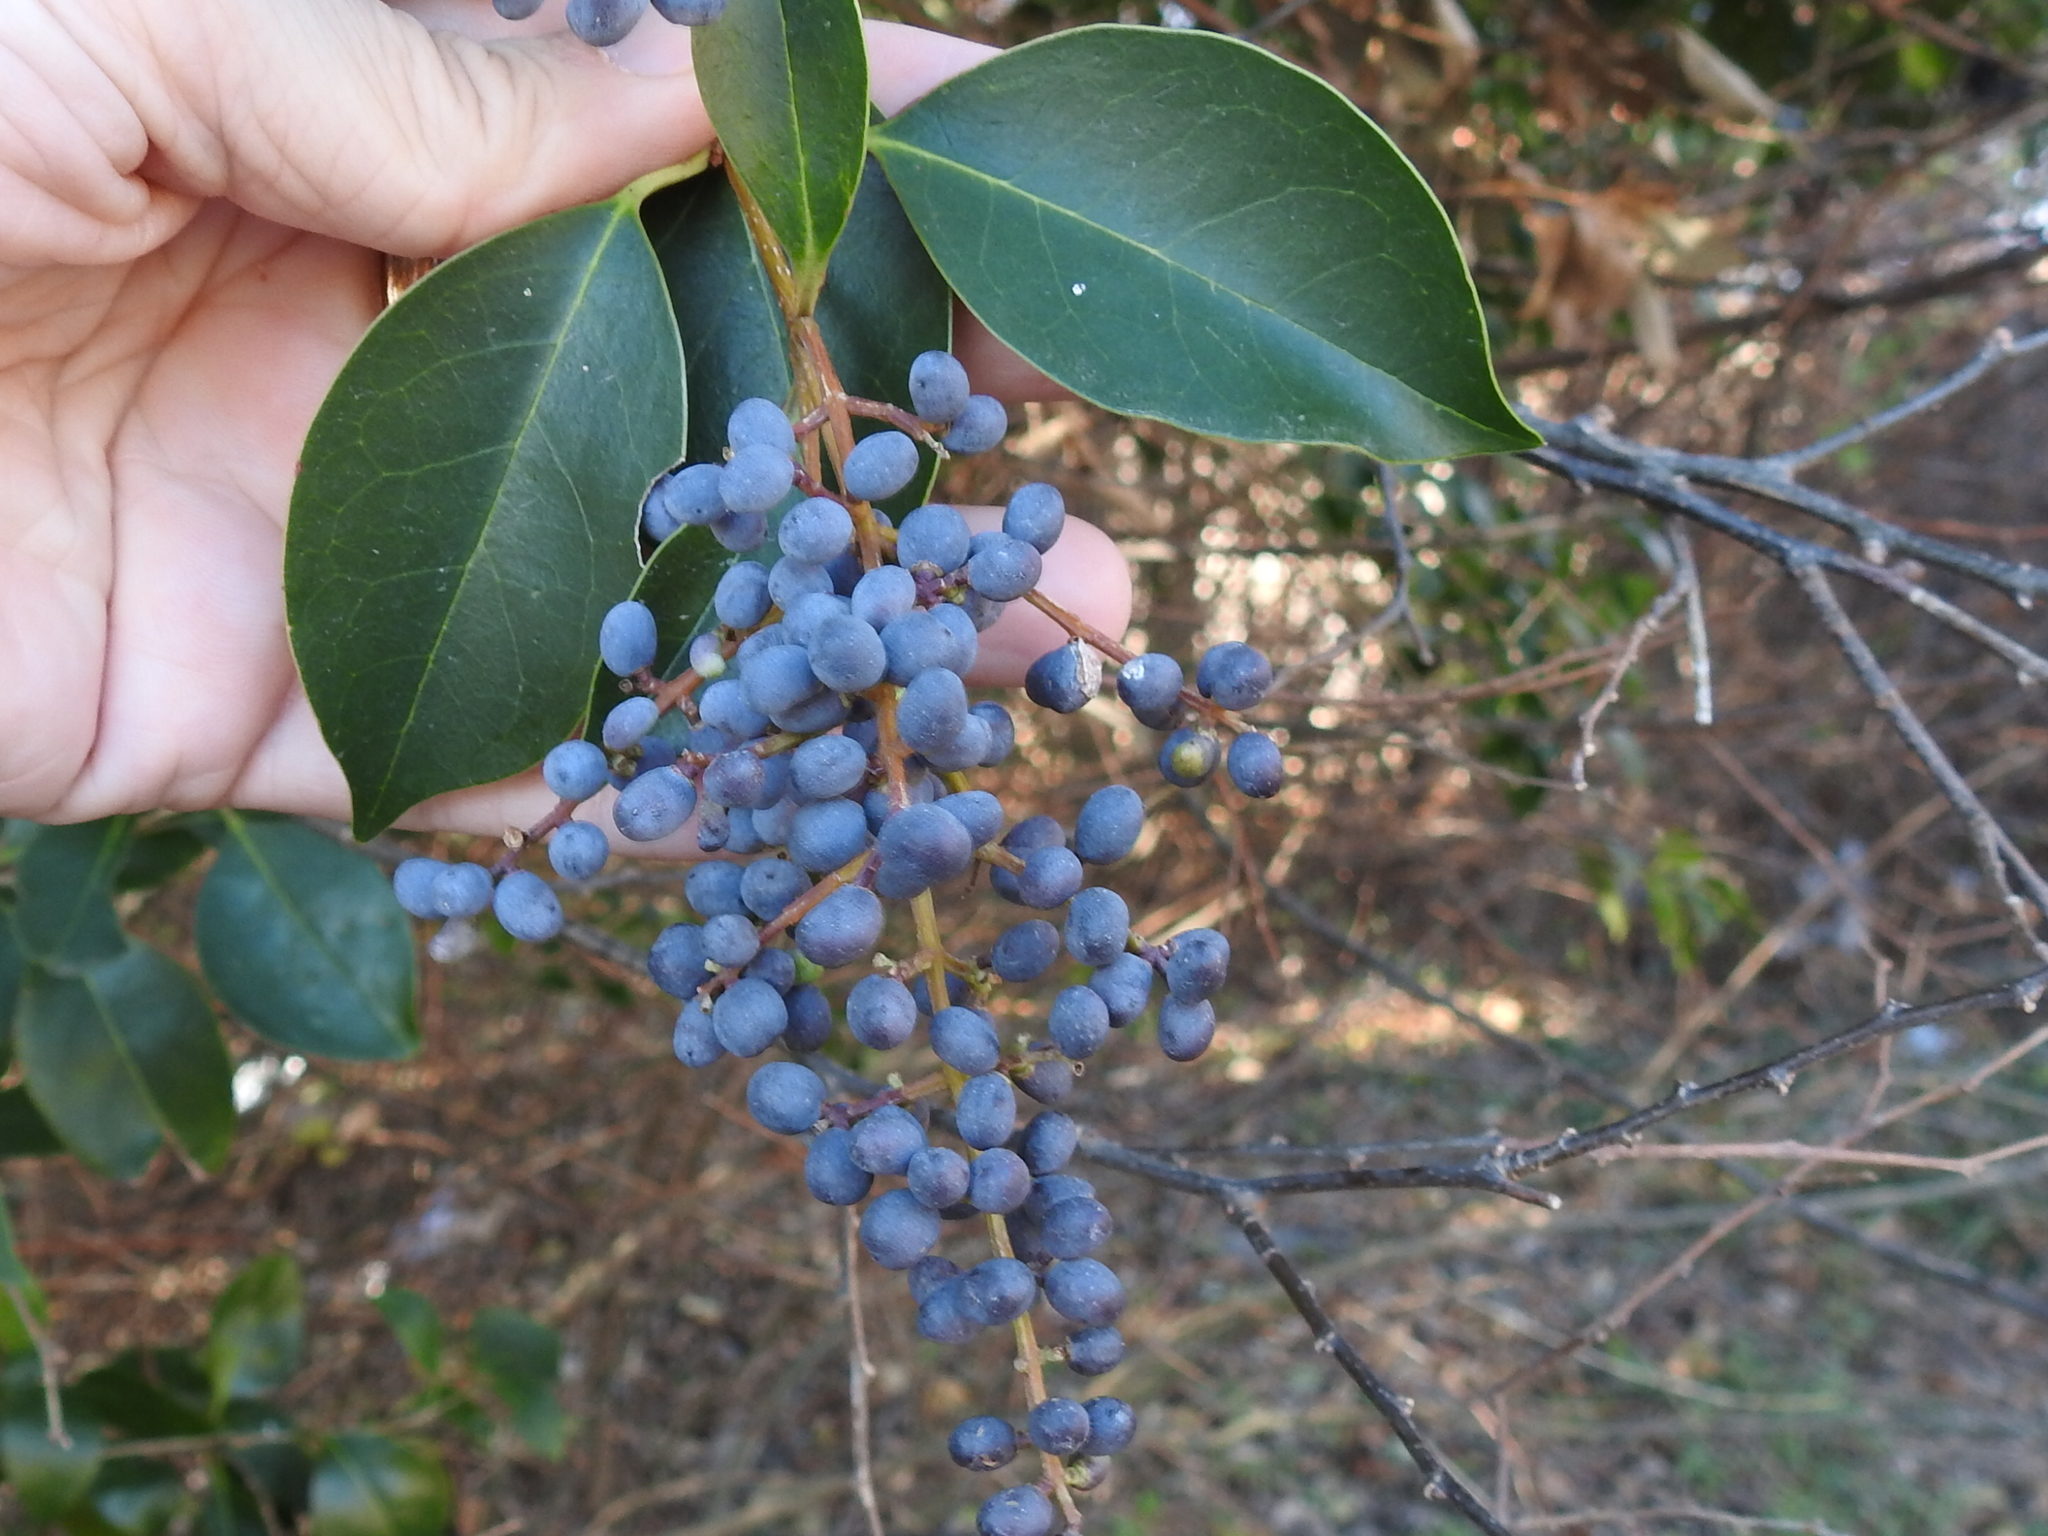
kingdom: Plantae
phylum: Tracheophyta
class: Magnoliopsida
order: Lamiales
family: Oleaceae
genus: Ligustrum
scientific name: Ligustrum lucidum
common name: Glossy privet
